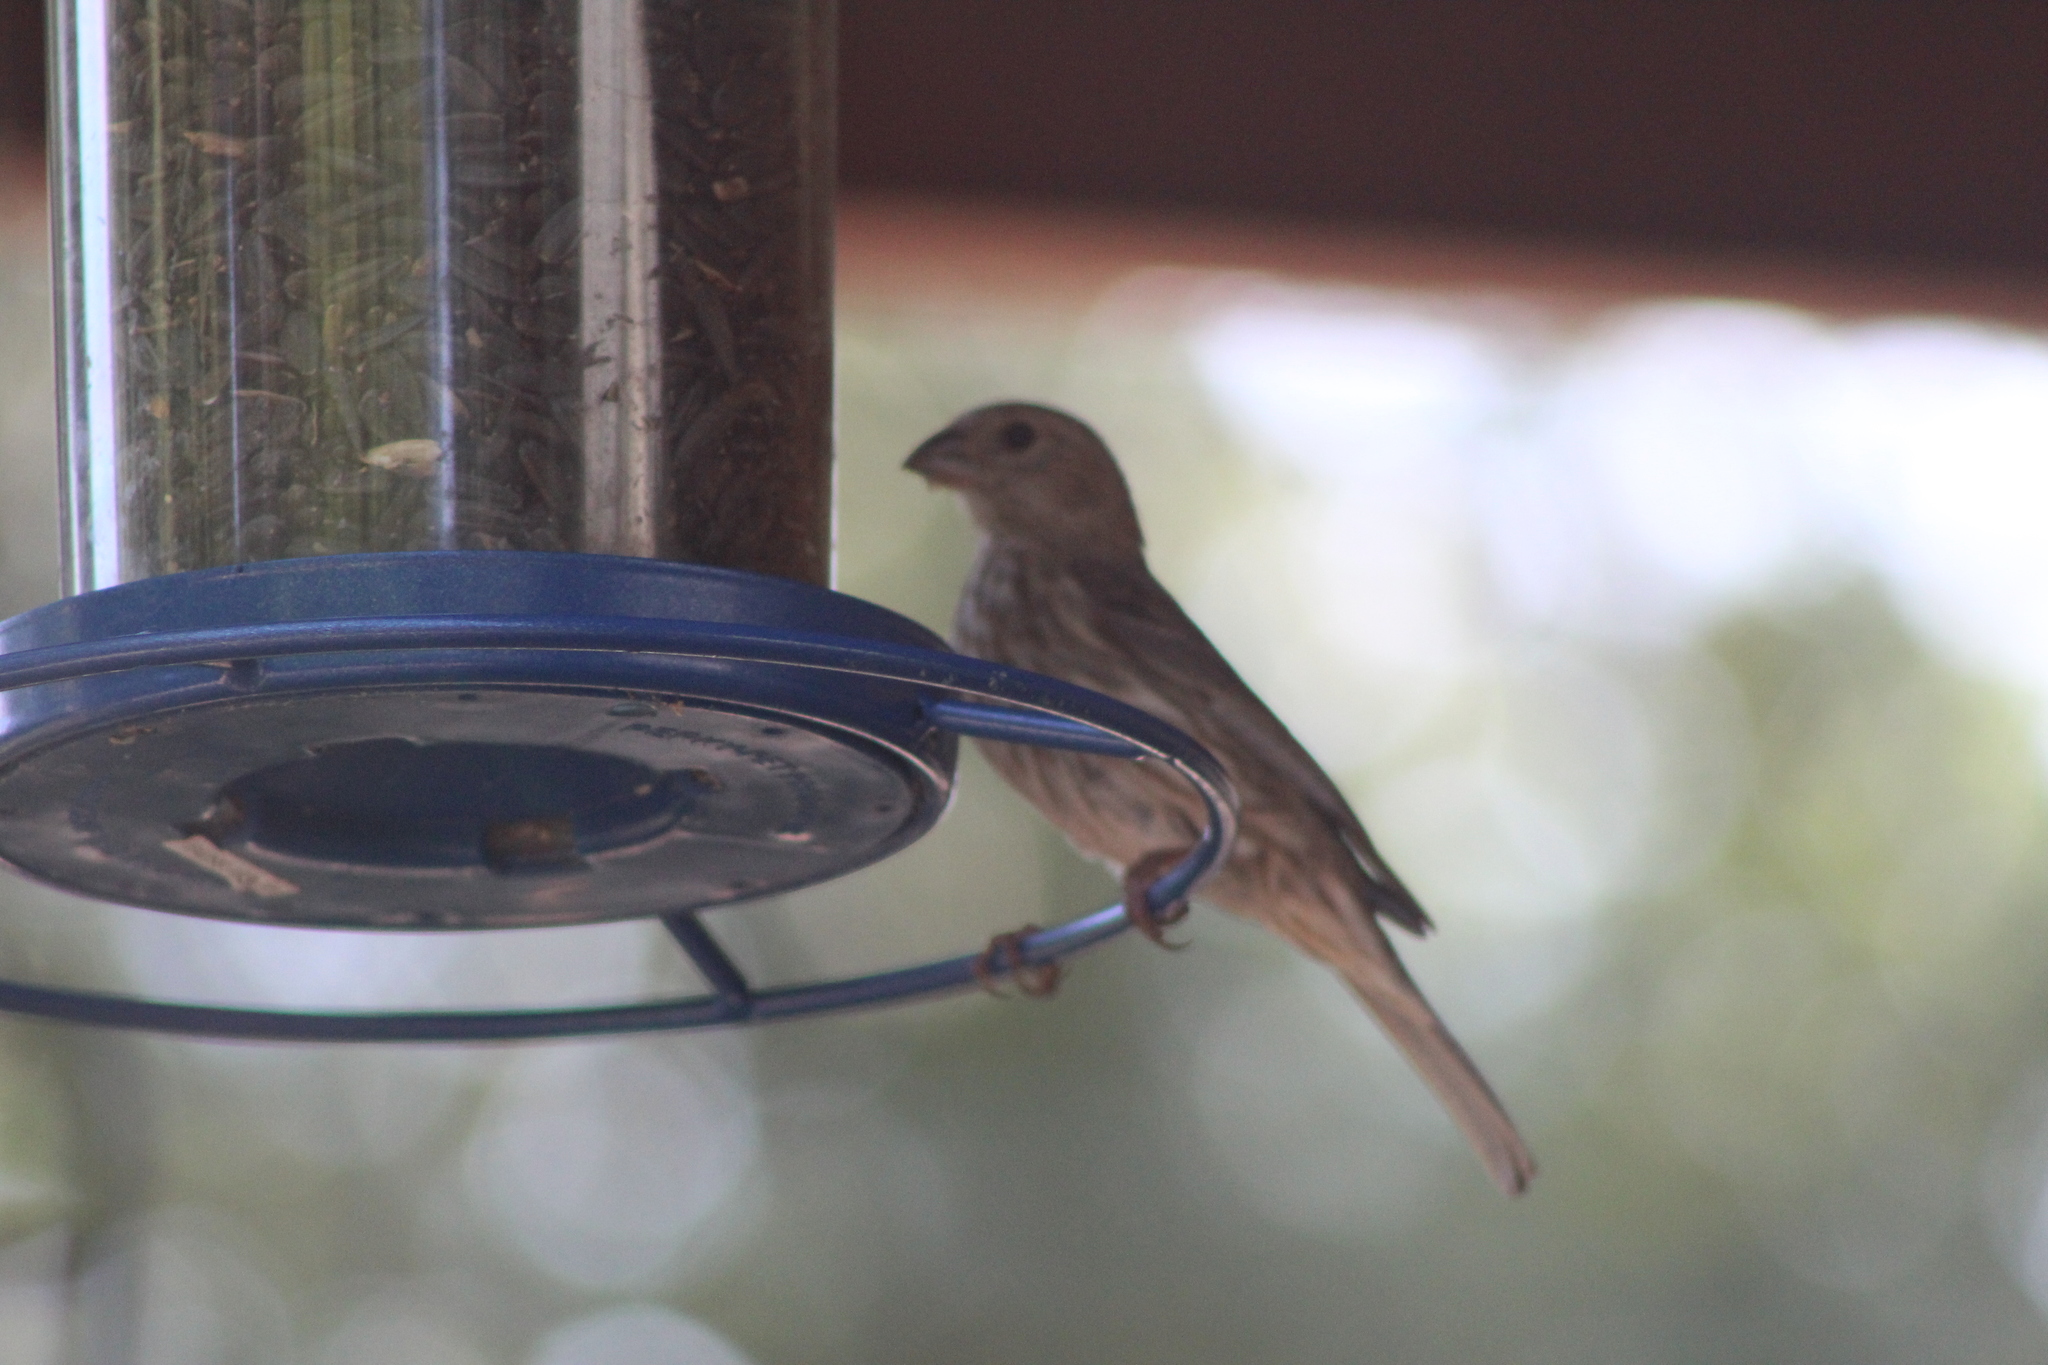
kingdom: Animalia
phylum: Chordata
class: Aves
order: Passeriformes
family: Fringillidae
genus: Haemorhous
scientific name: Haemorhous mexicanus
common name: House finch
